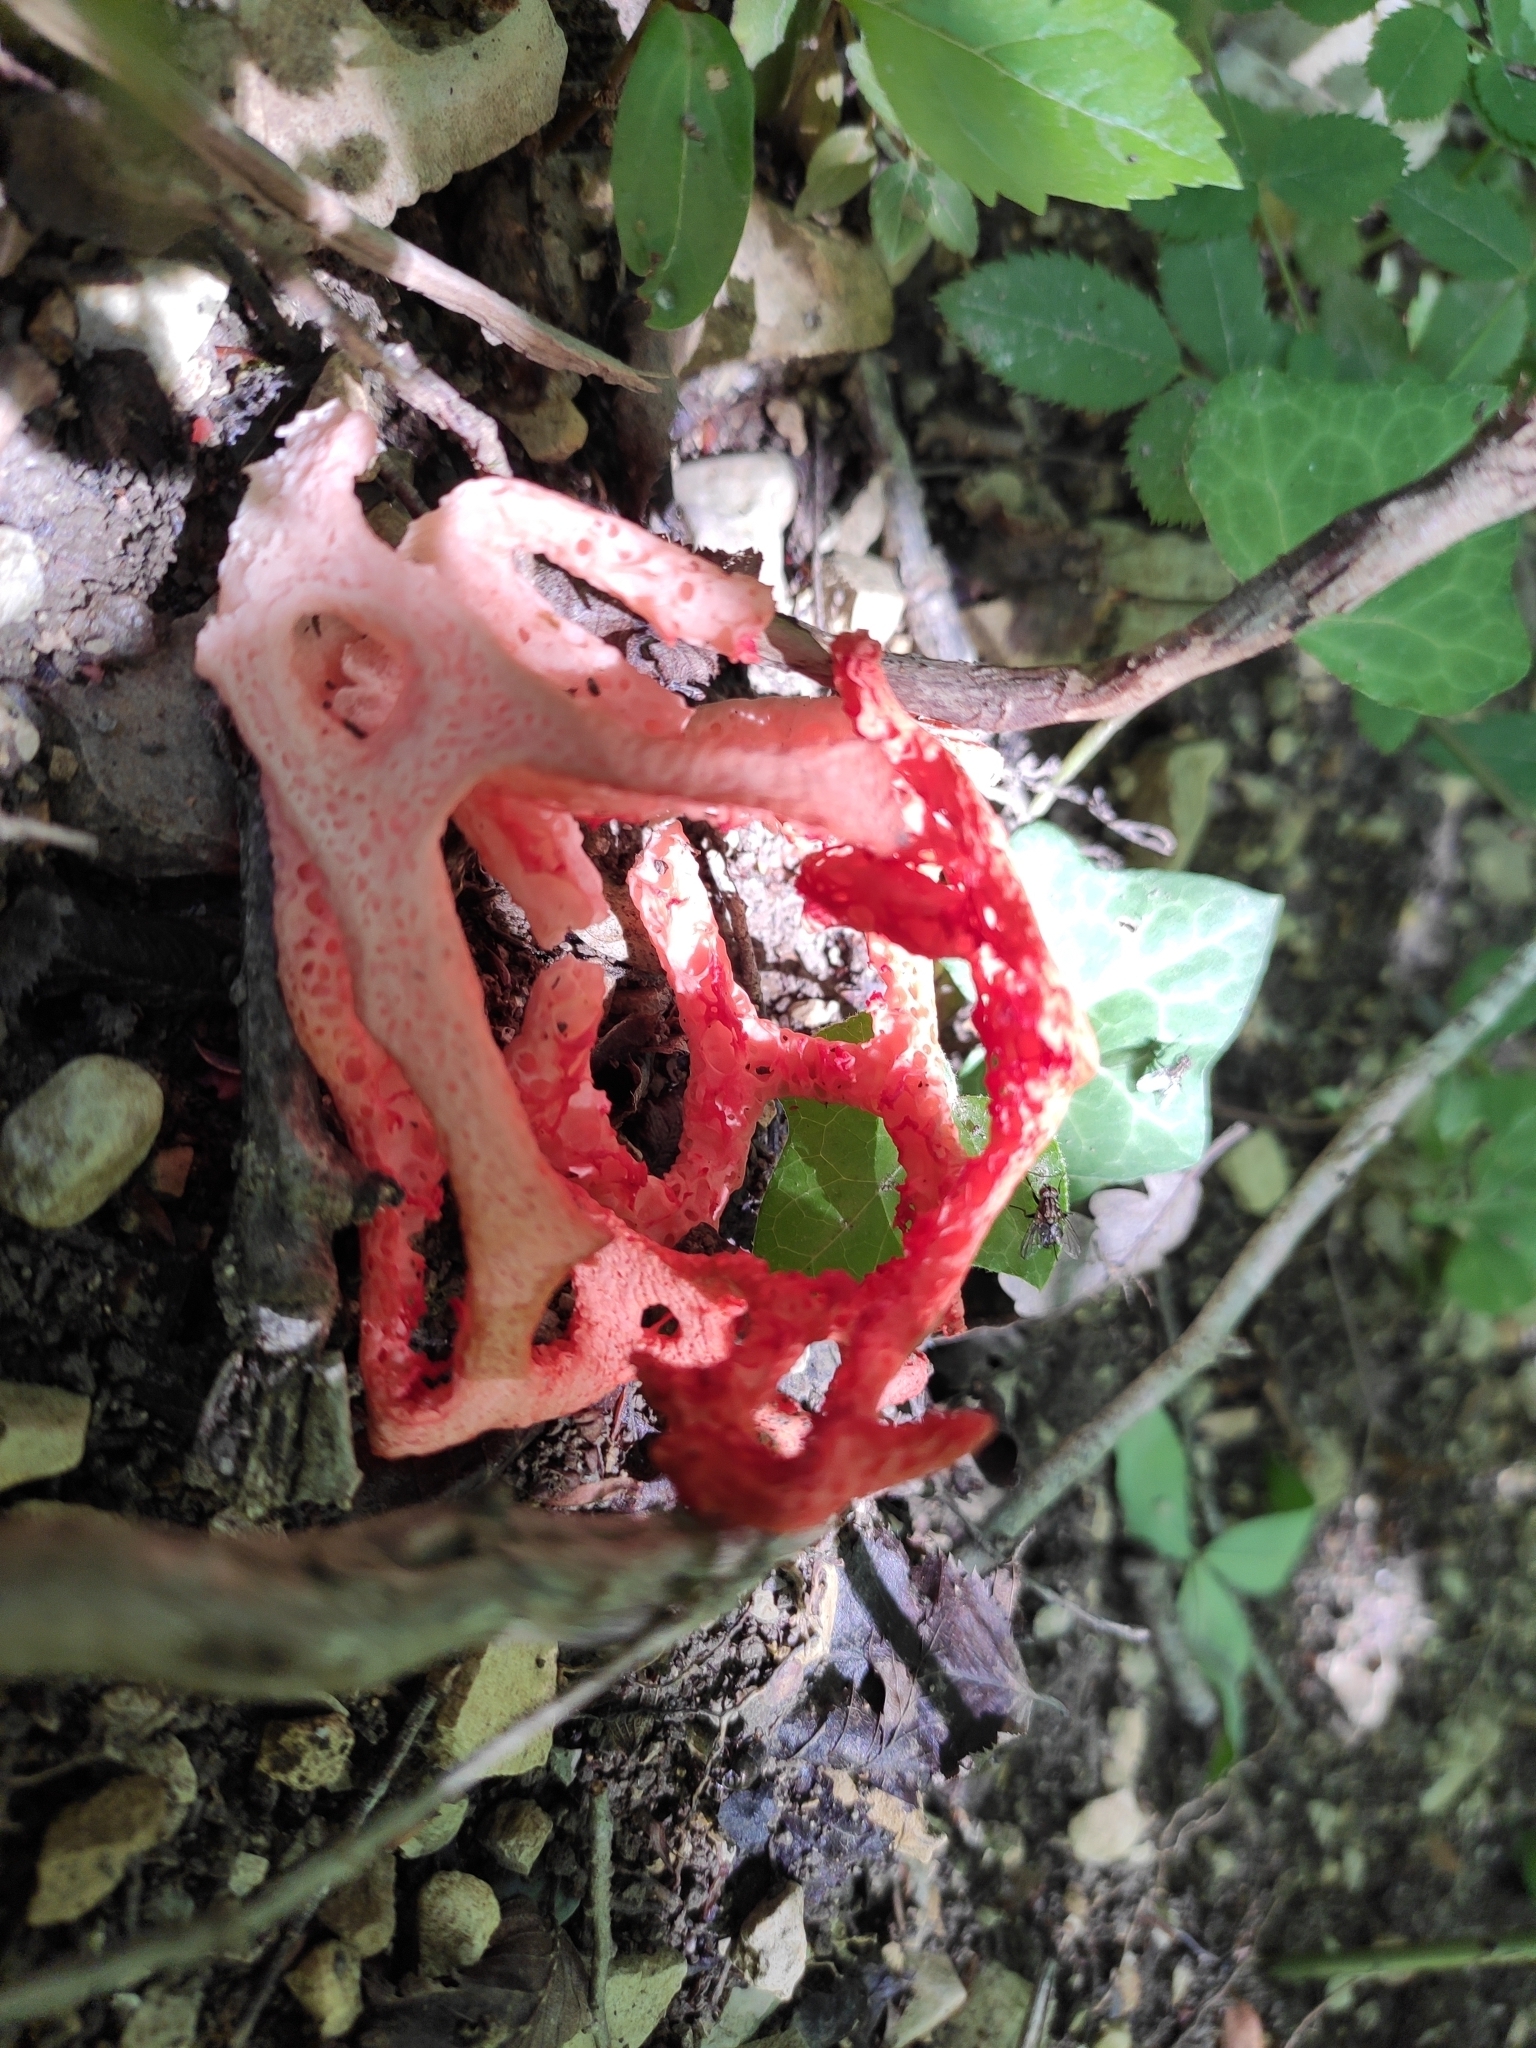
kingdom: Fungi
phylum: Basidiomycota
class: Agaricomycetes
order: Phallales
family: Phallaceae
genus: Clathrus
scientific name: Clathrus ruber
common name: Red cage
